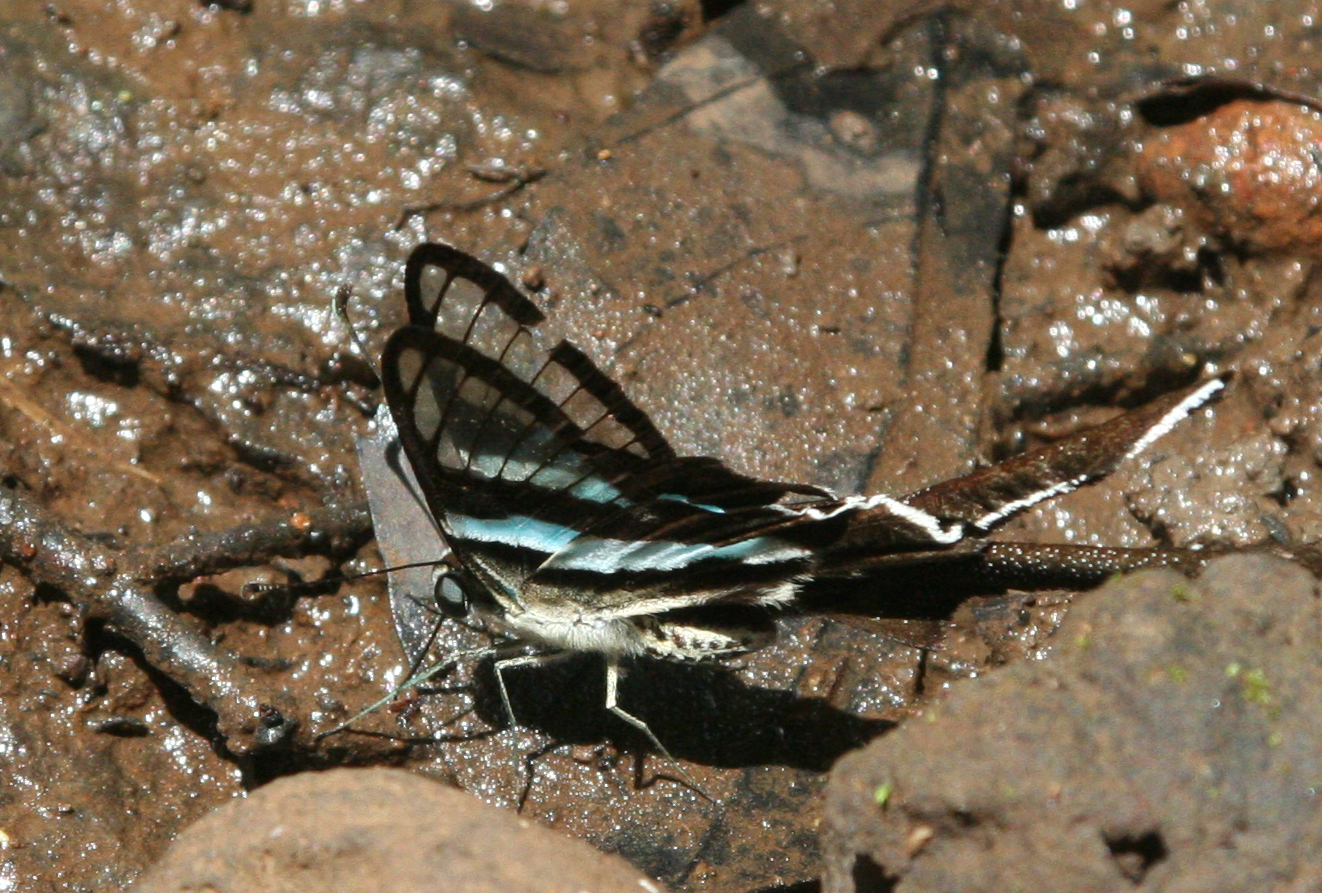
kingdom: Animalia
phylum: Arthropoda
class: Insecta
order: Lepidoptera
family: Papilionidae
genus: Lamproptera
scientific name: Lamproptera meges
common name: Green dragontail
